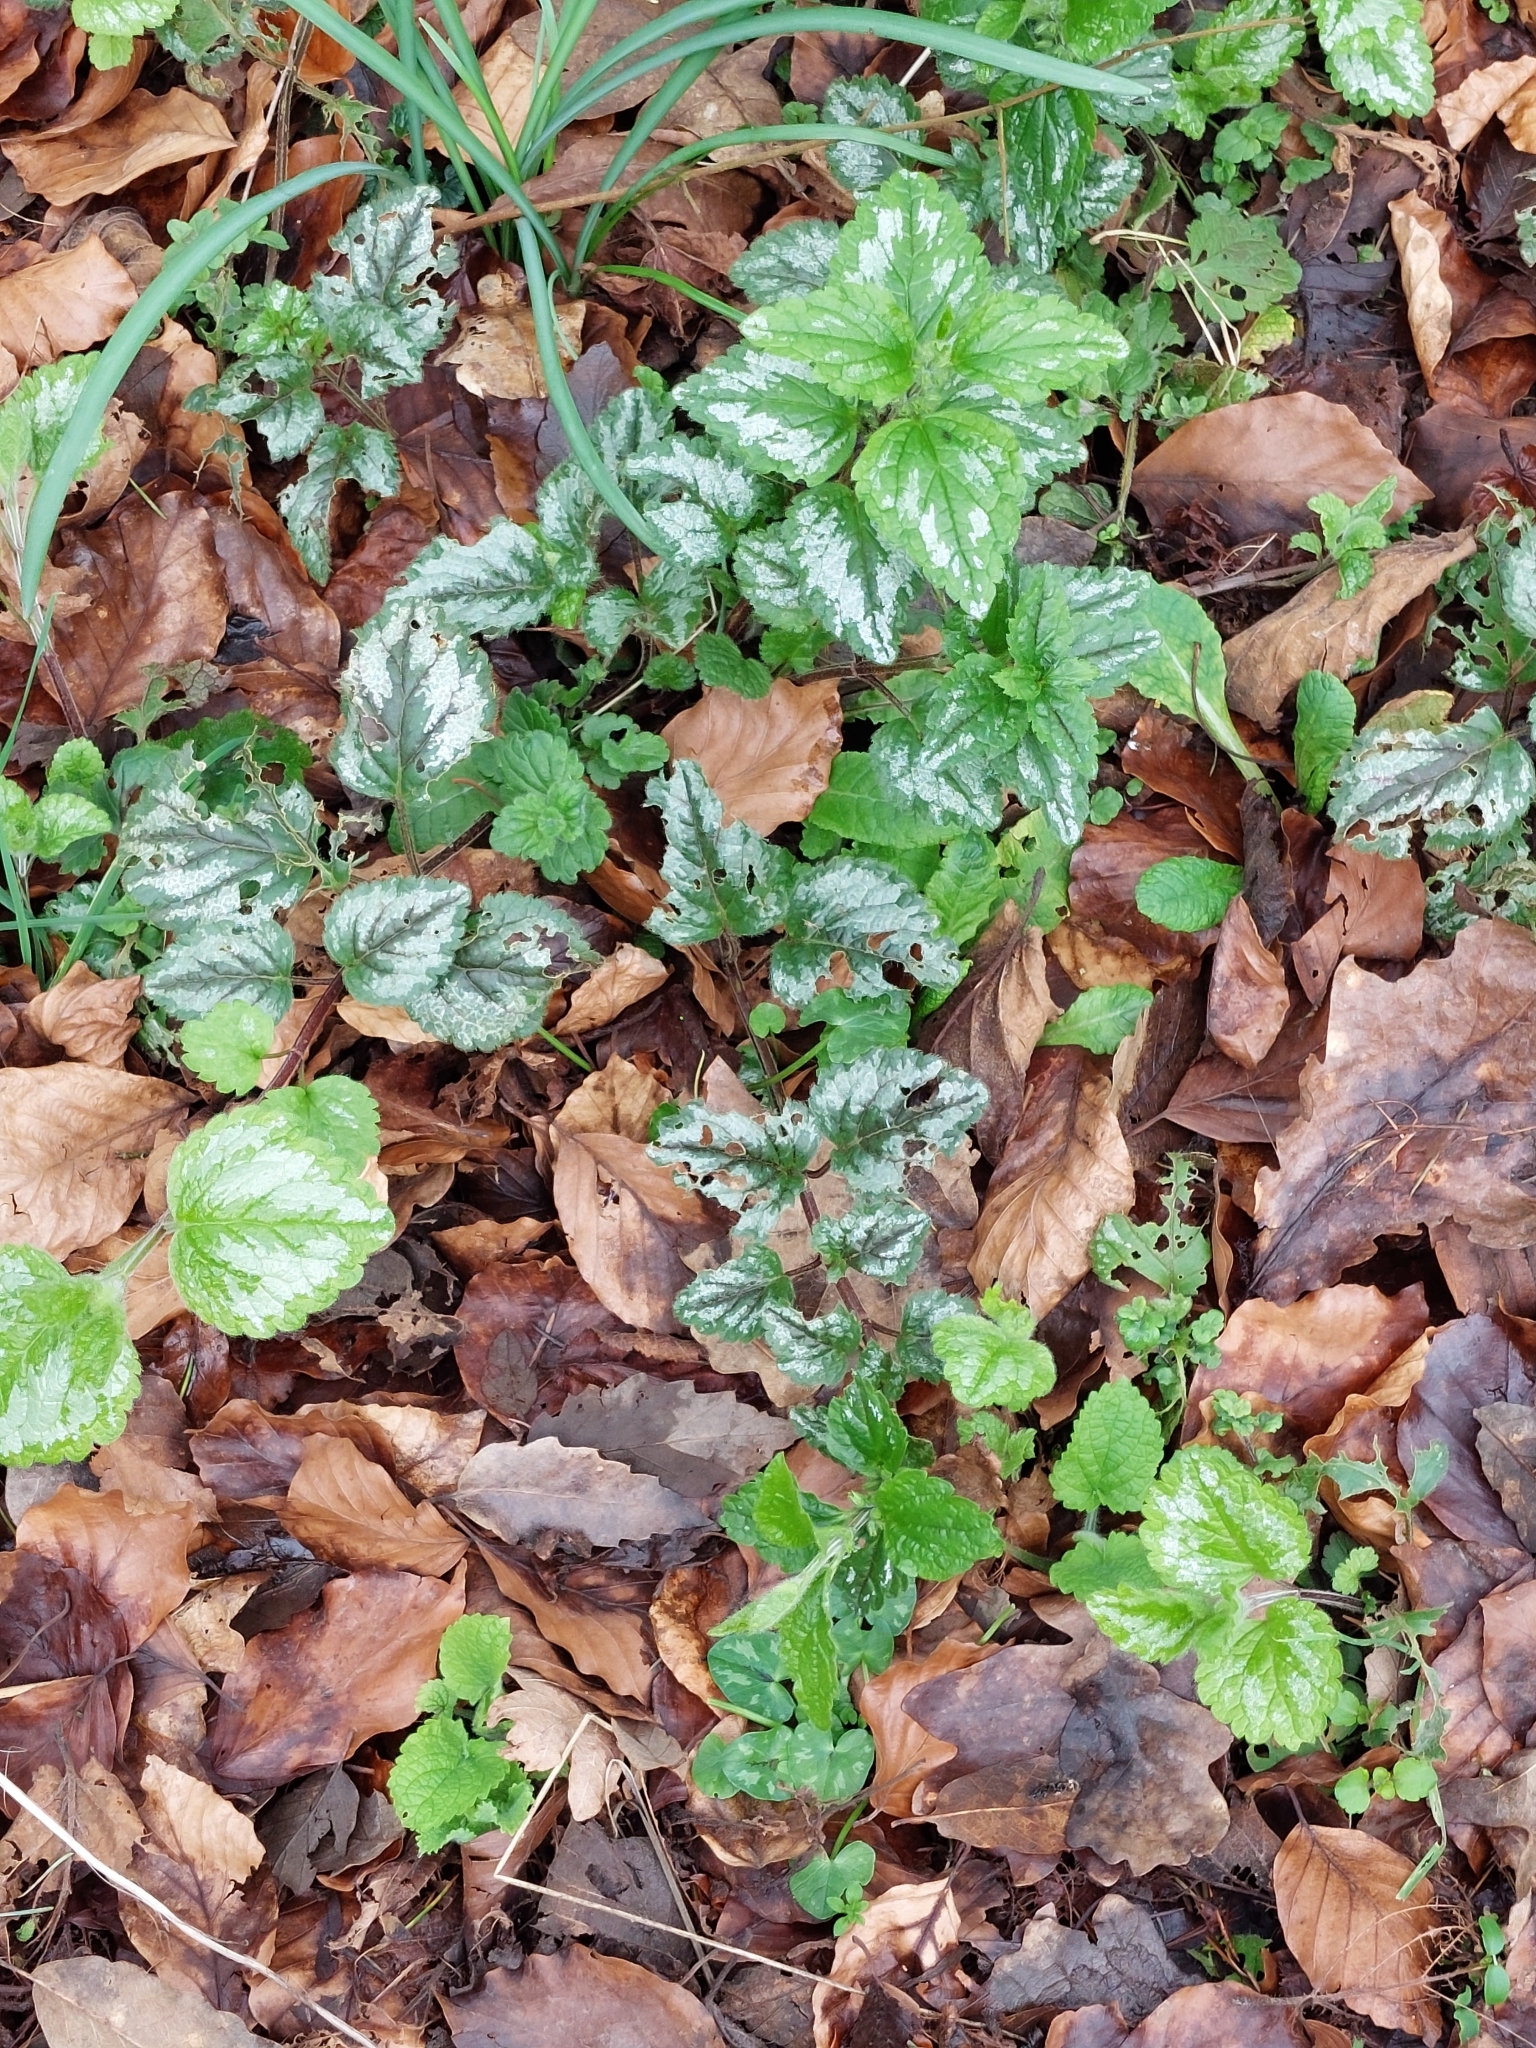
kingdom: Plantae
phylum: Tracheophyta
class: Magnoliopsida
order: Lamiales
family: Lamiaceae
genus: Lamium
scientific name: Lamium galeobdolon
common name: Yellow archangel
